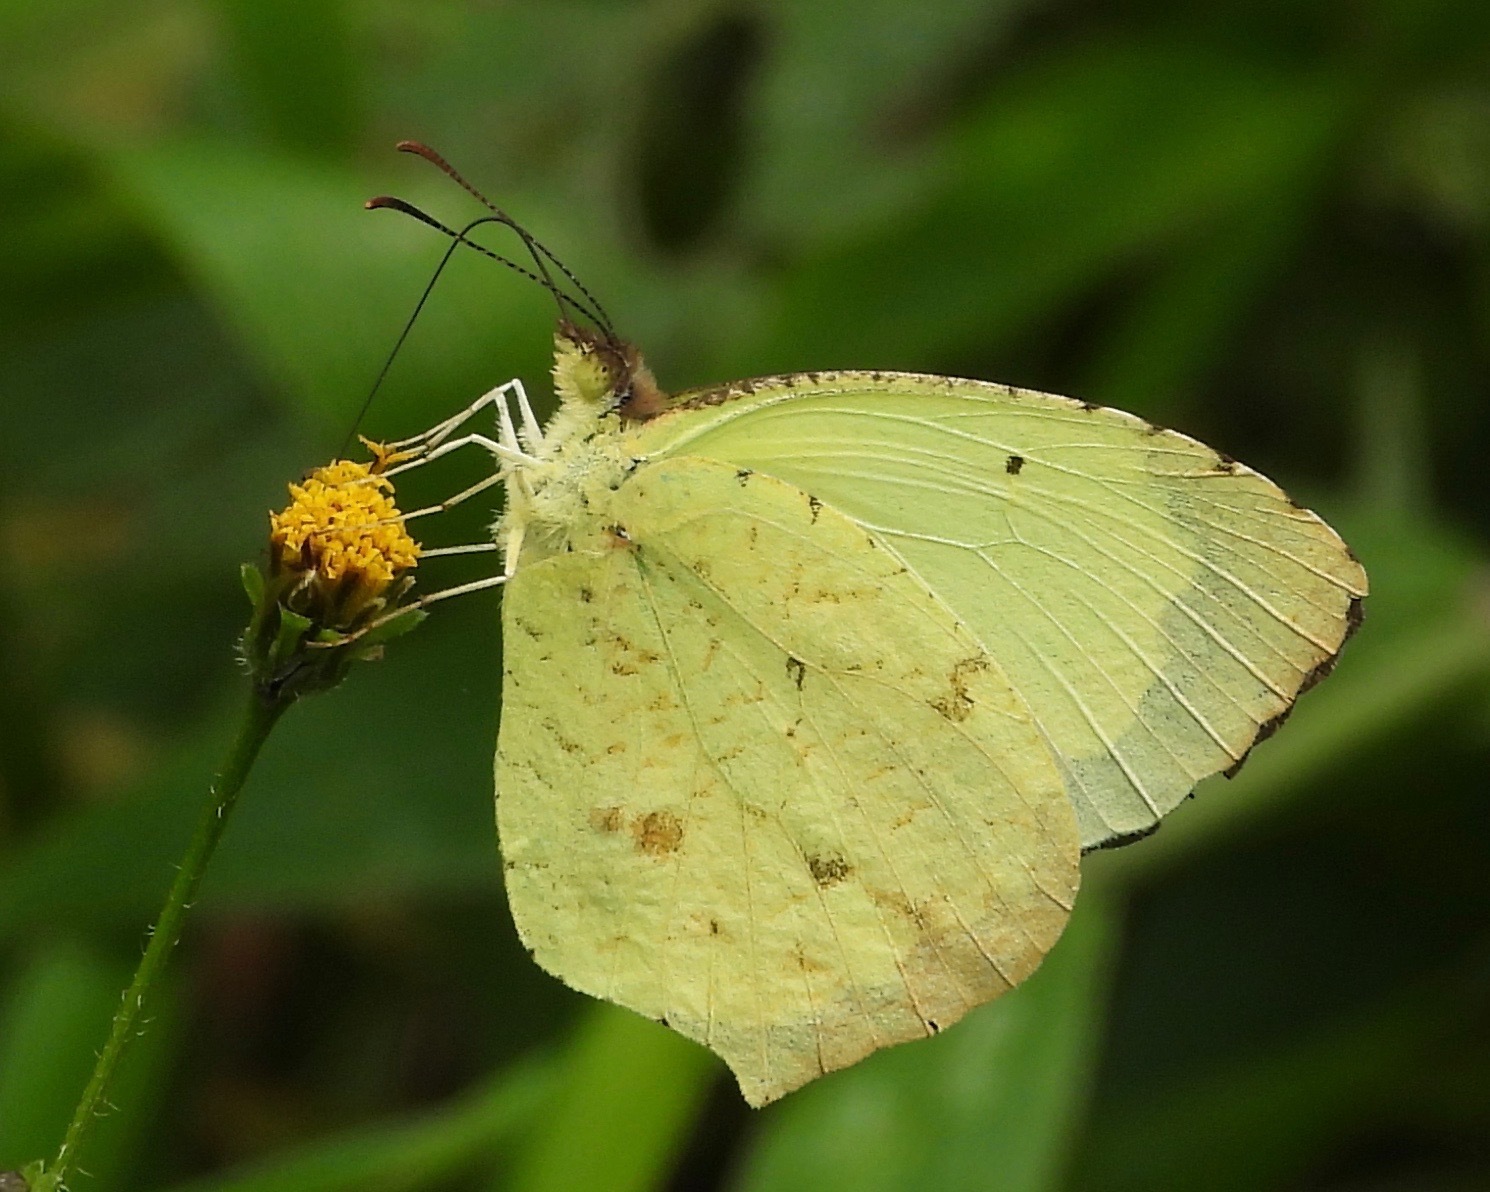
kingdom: Animalia
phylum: Arthropoda
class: Insecta
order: Lepidoptera
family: Pieridae
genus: Abaeis
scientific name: Abaeis salome
